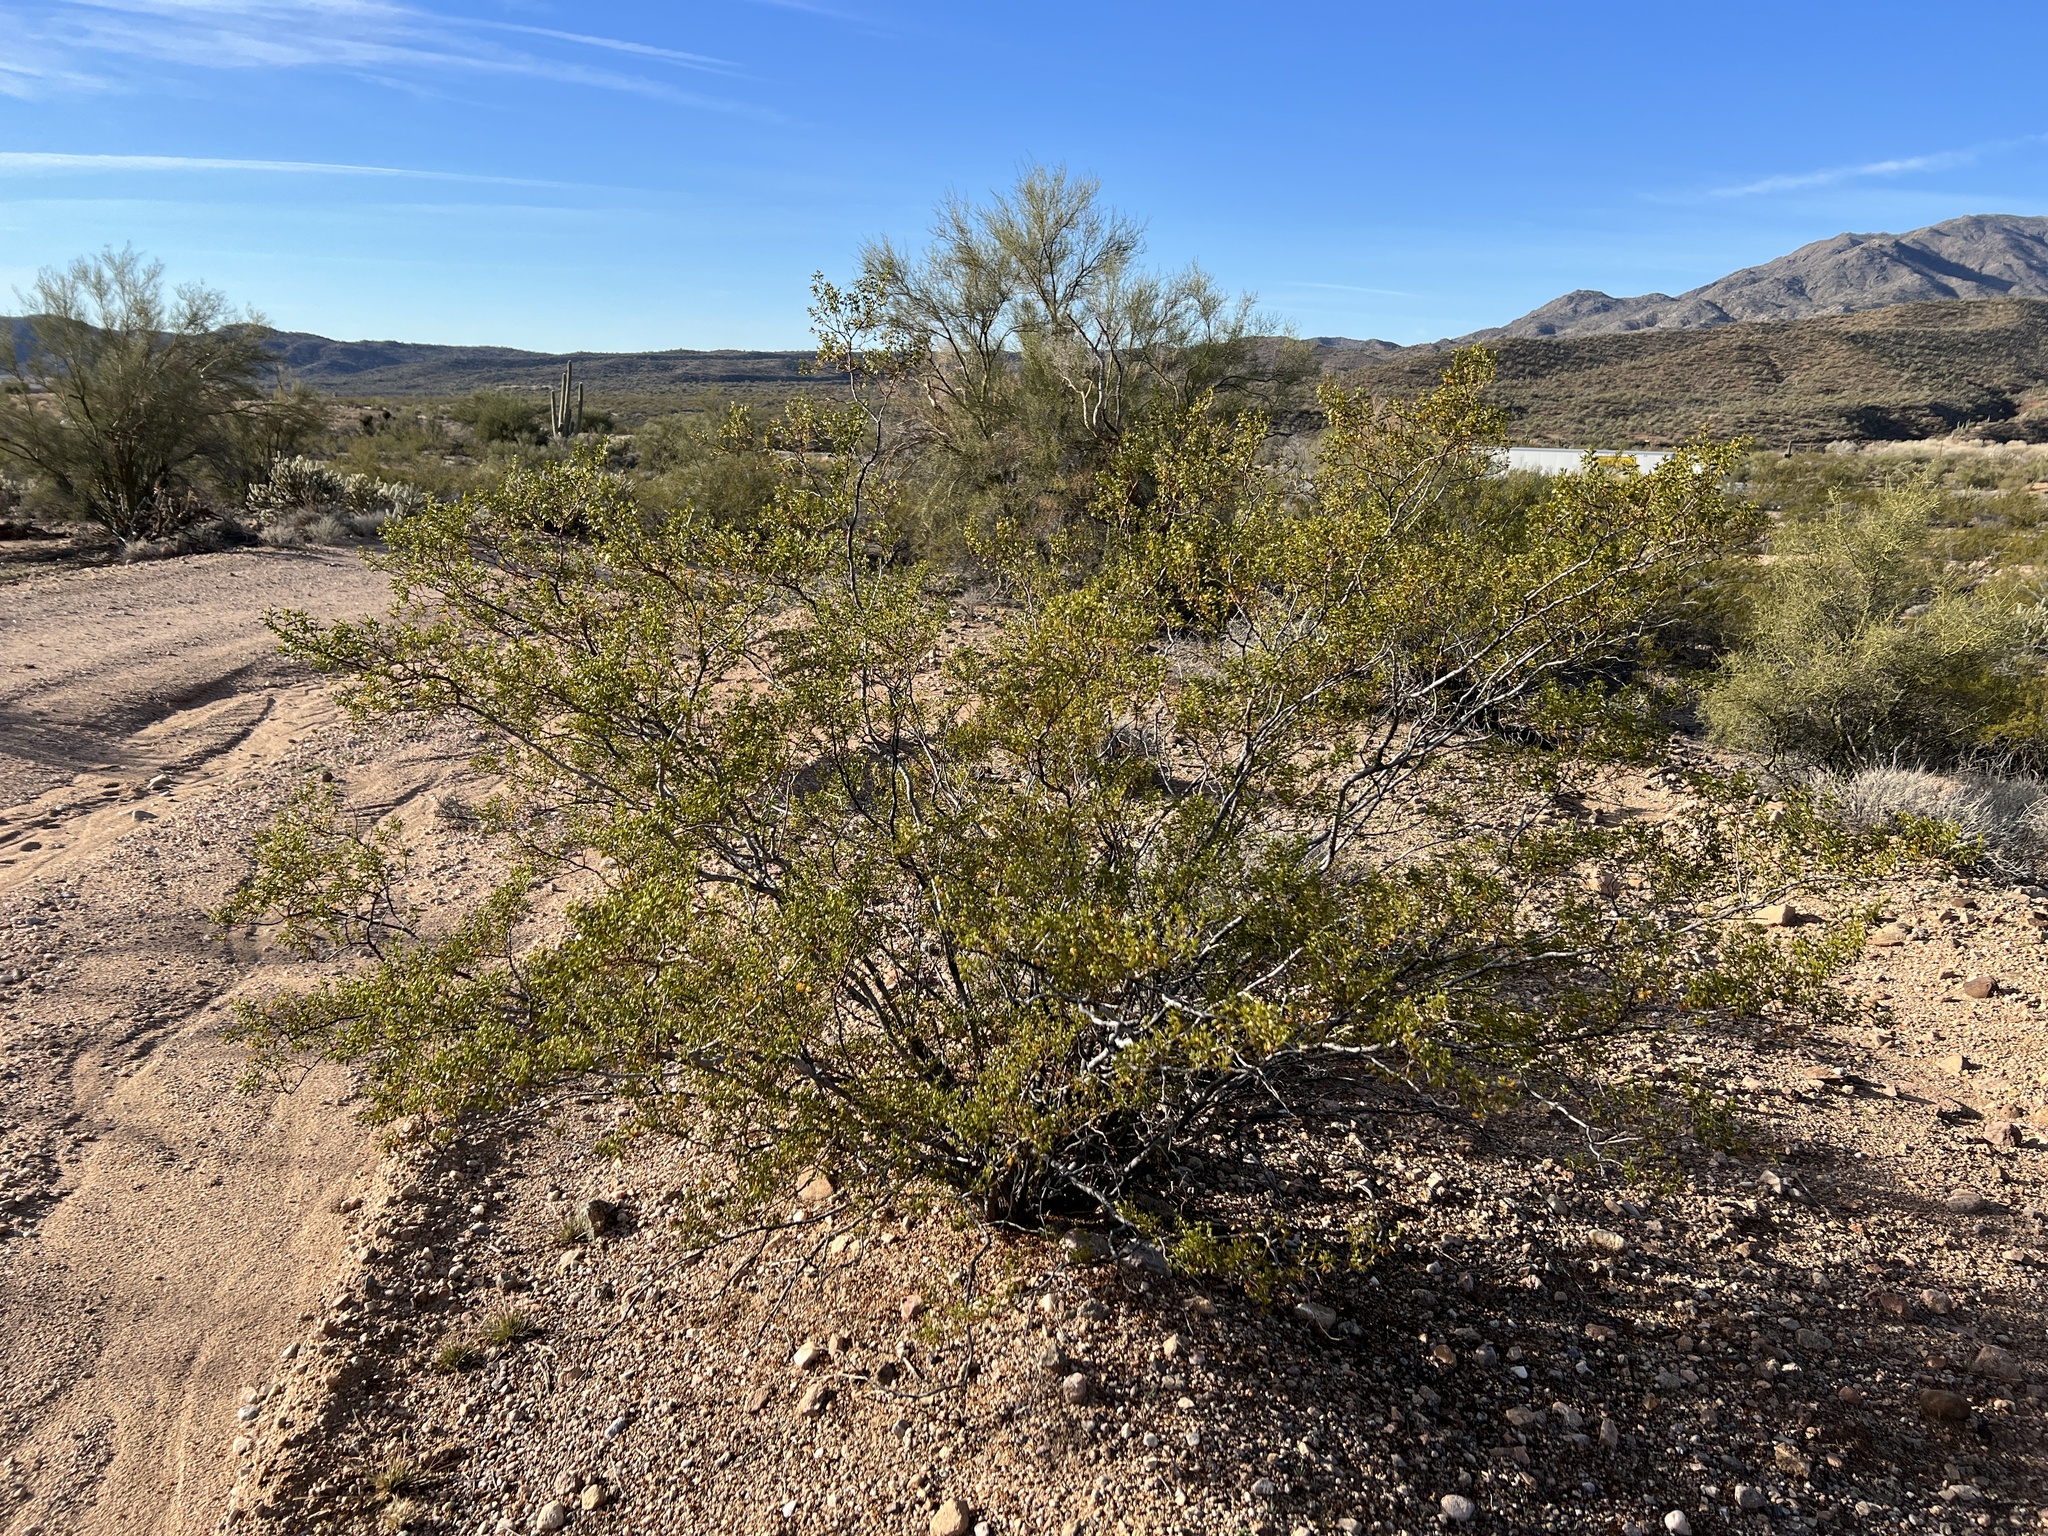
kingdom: Plantae
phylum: Tracheophyta
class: Magnoliopsida
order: Zygophyllales
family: Zygophyllaceae
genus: Larrea
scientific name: Larrea tridentata
